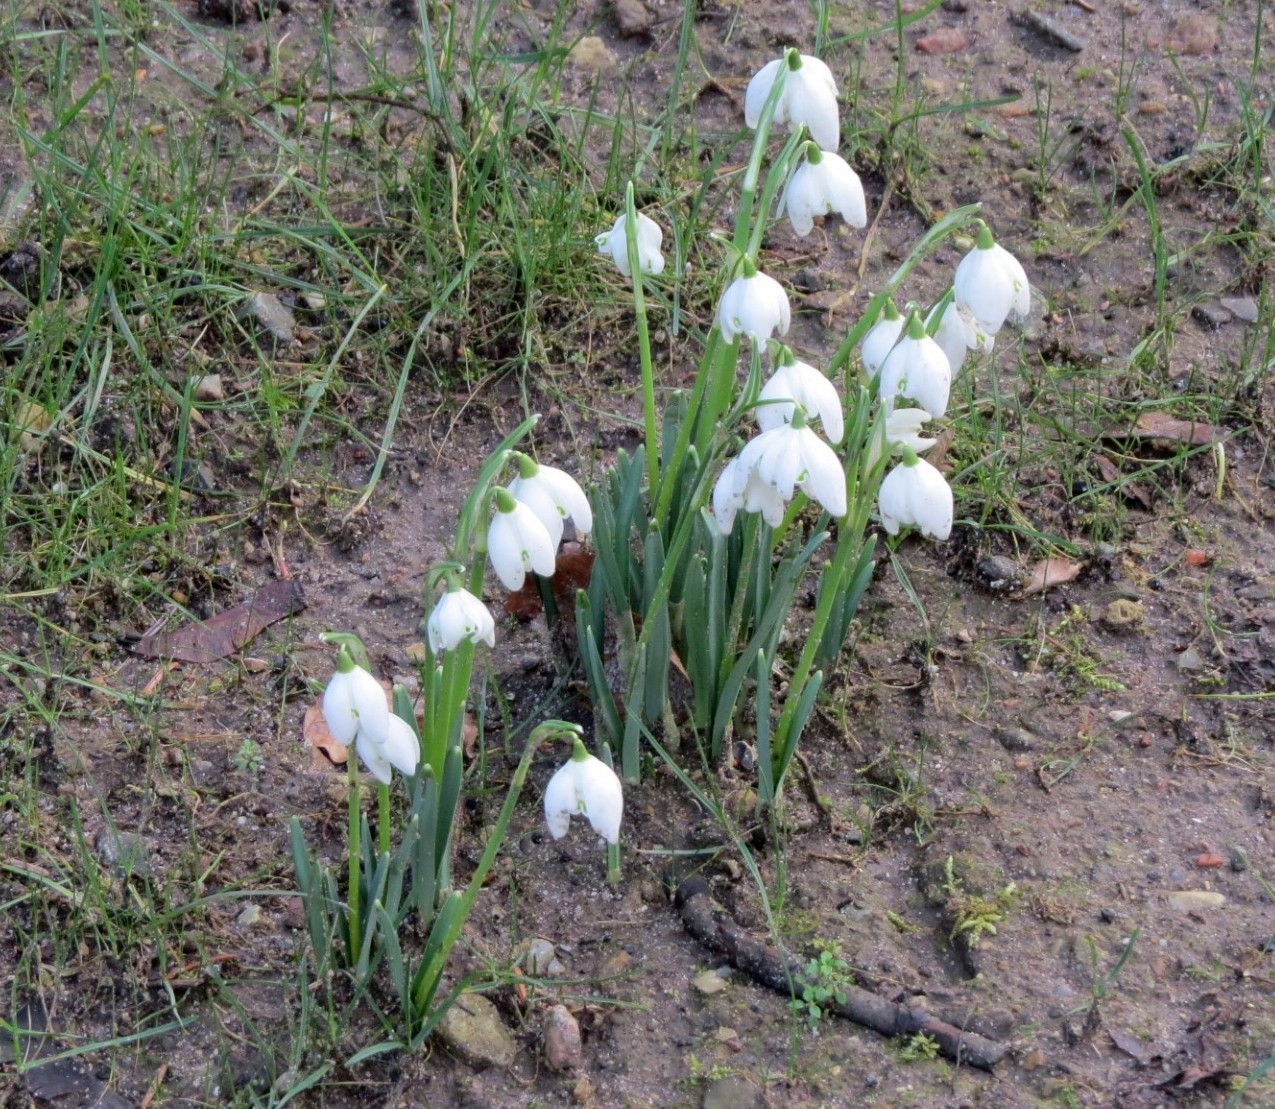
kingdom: Plantae
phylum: Tracheophyta
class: Liliopsida
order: Asparagales
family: Amaryllidaceae
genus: Galanthus
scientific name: Galanthus nivalis
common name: Snowdrop
